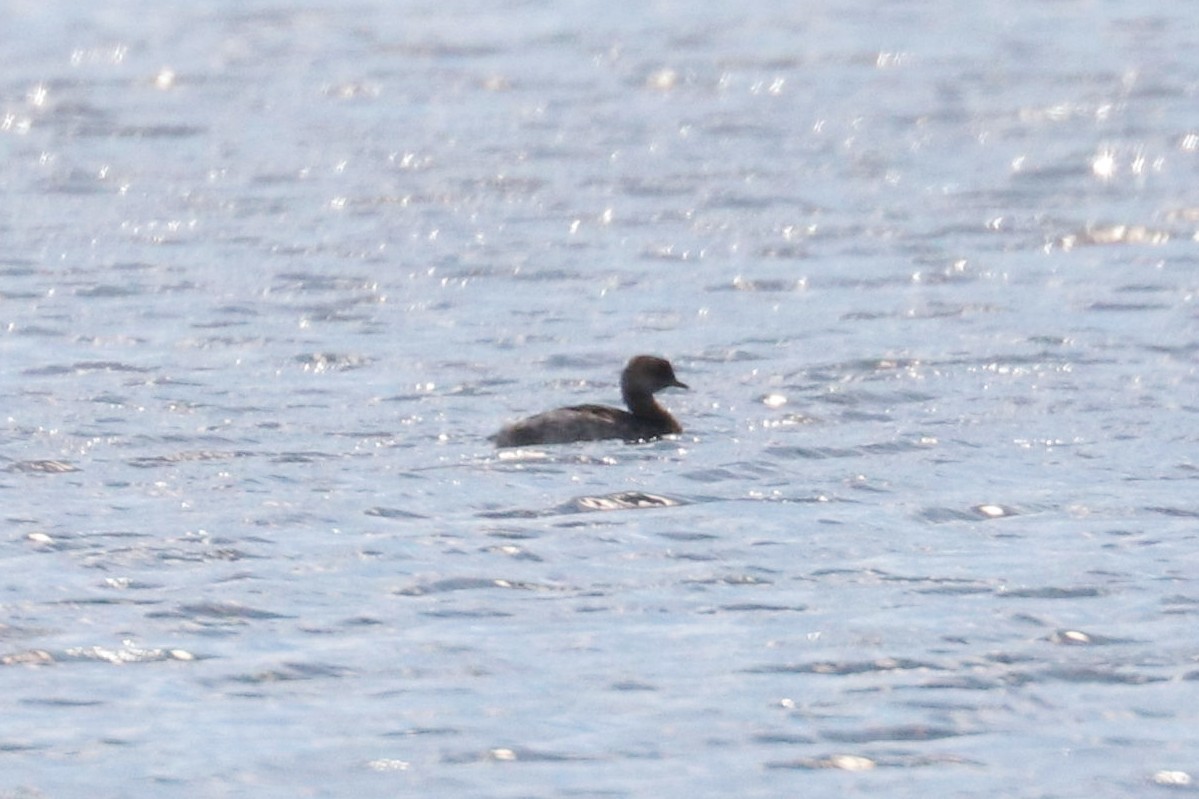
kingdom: Animalia
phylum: Chordata
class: Aves
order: Podicipediformes
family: Podicipedidae
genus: Podiceps
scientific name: Podiceps auritus
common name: Horned grebe
